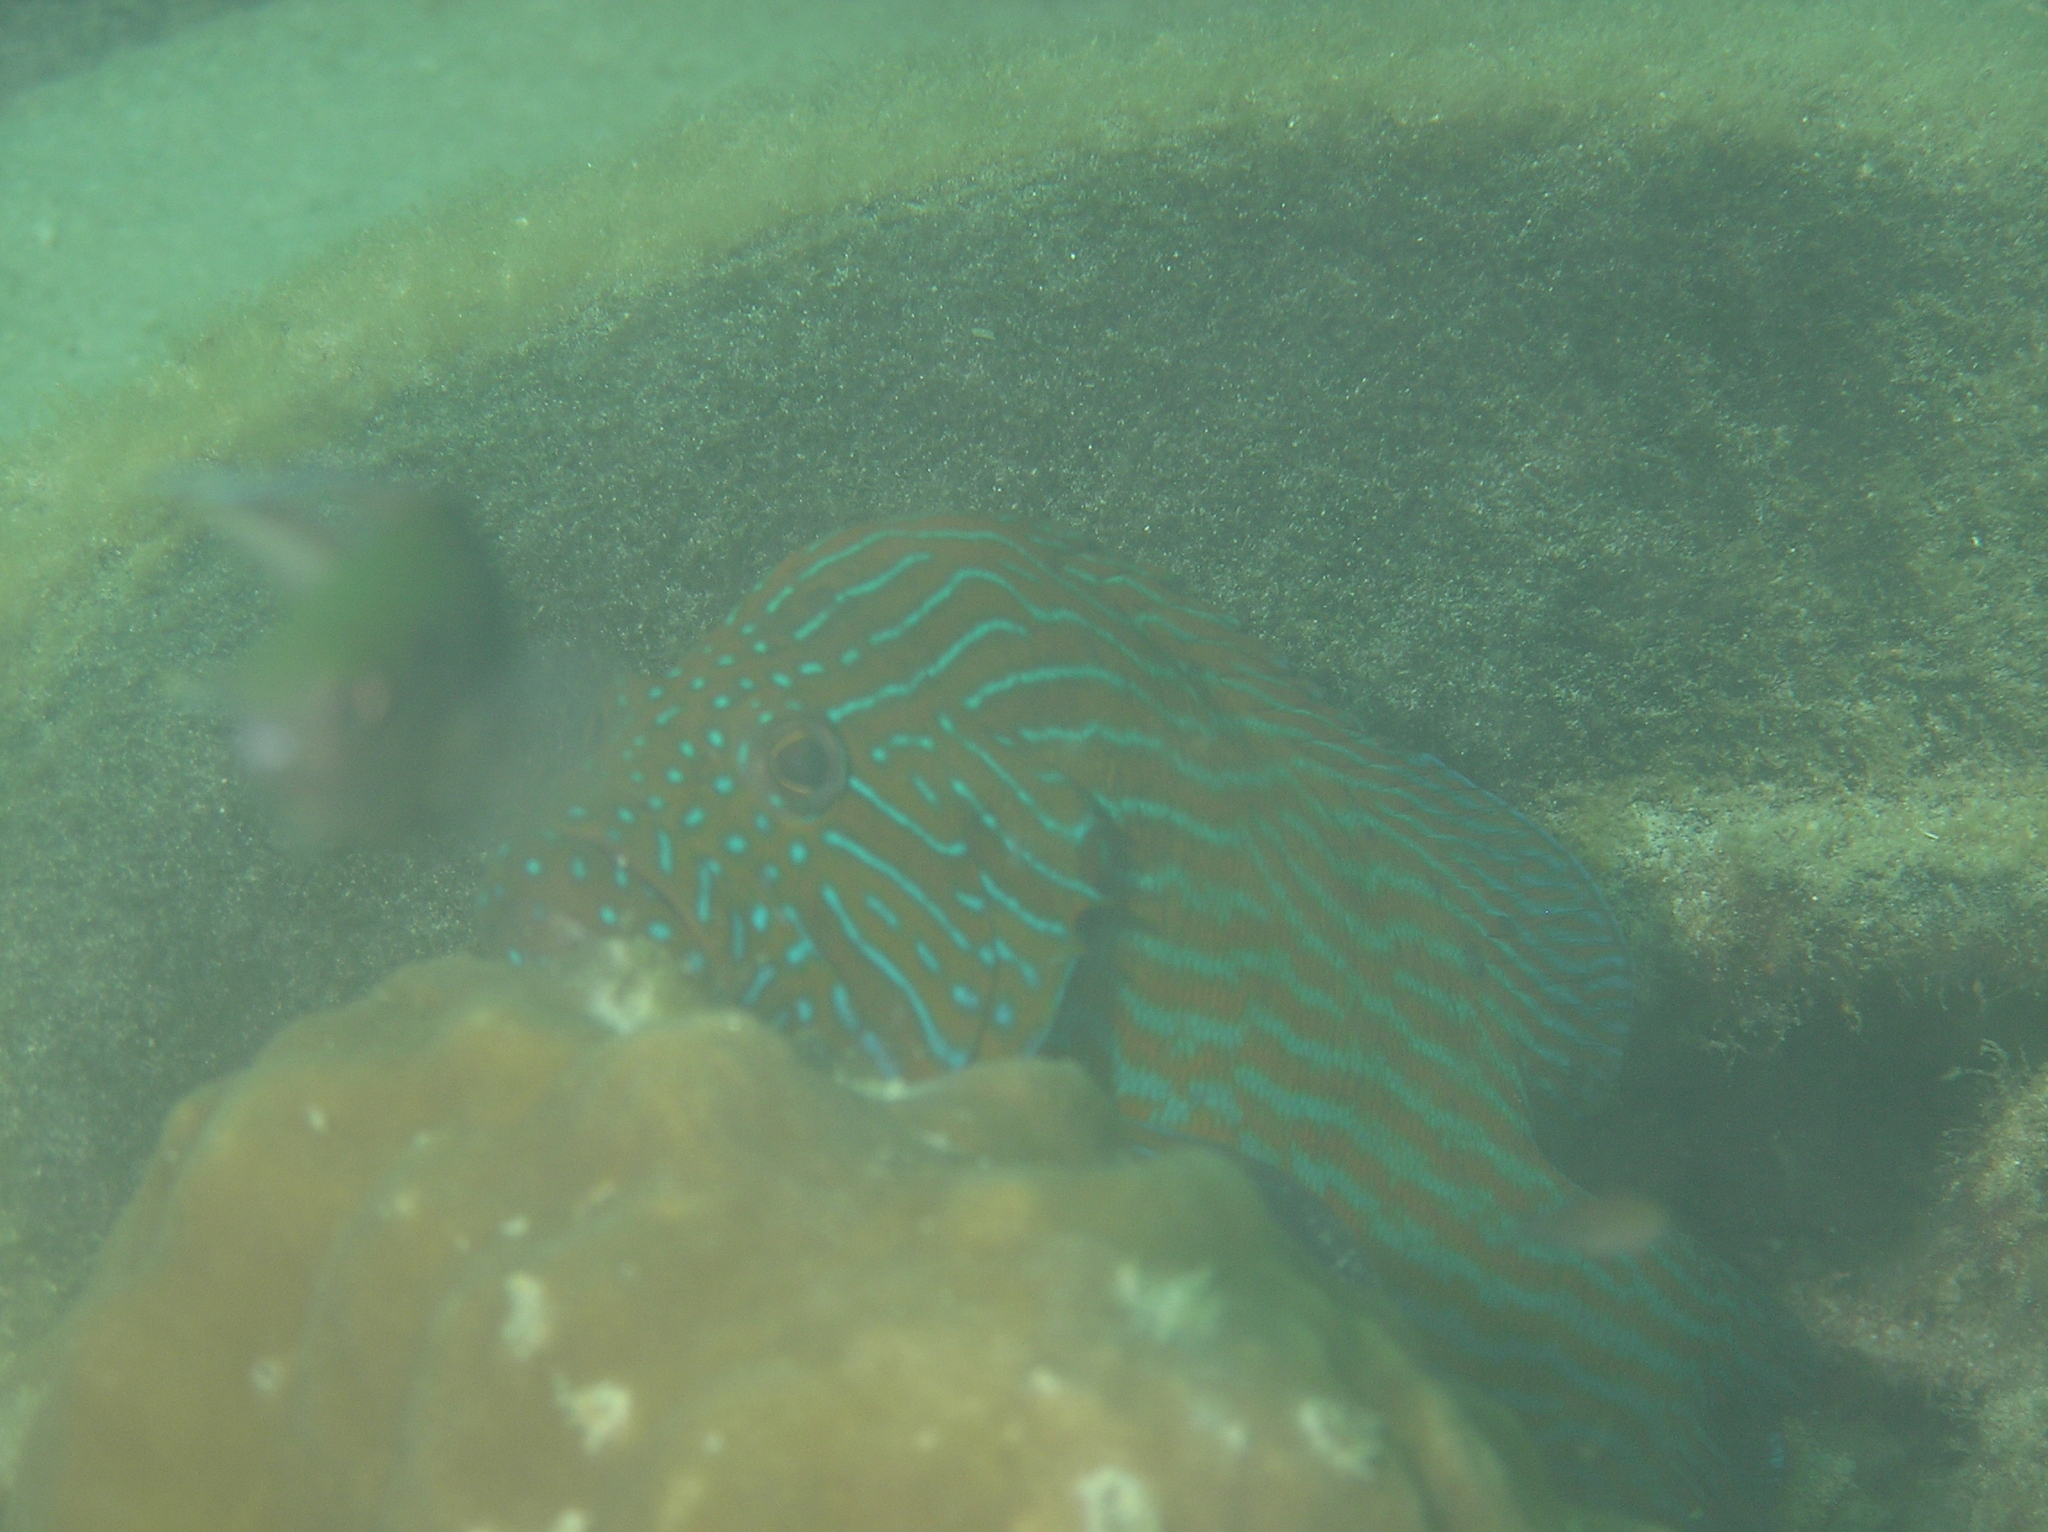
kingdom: Animalia
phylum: Chordata
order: Perciformes
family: Serranidae
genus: Cephalopholis
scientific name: Cephalopholis formosa
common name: Bluelined hind
